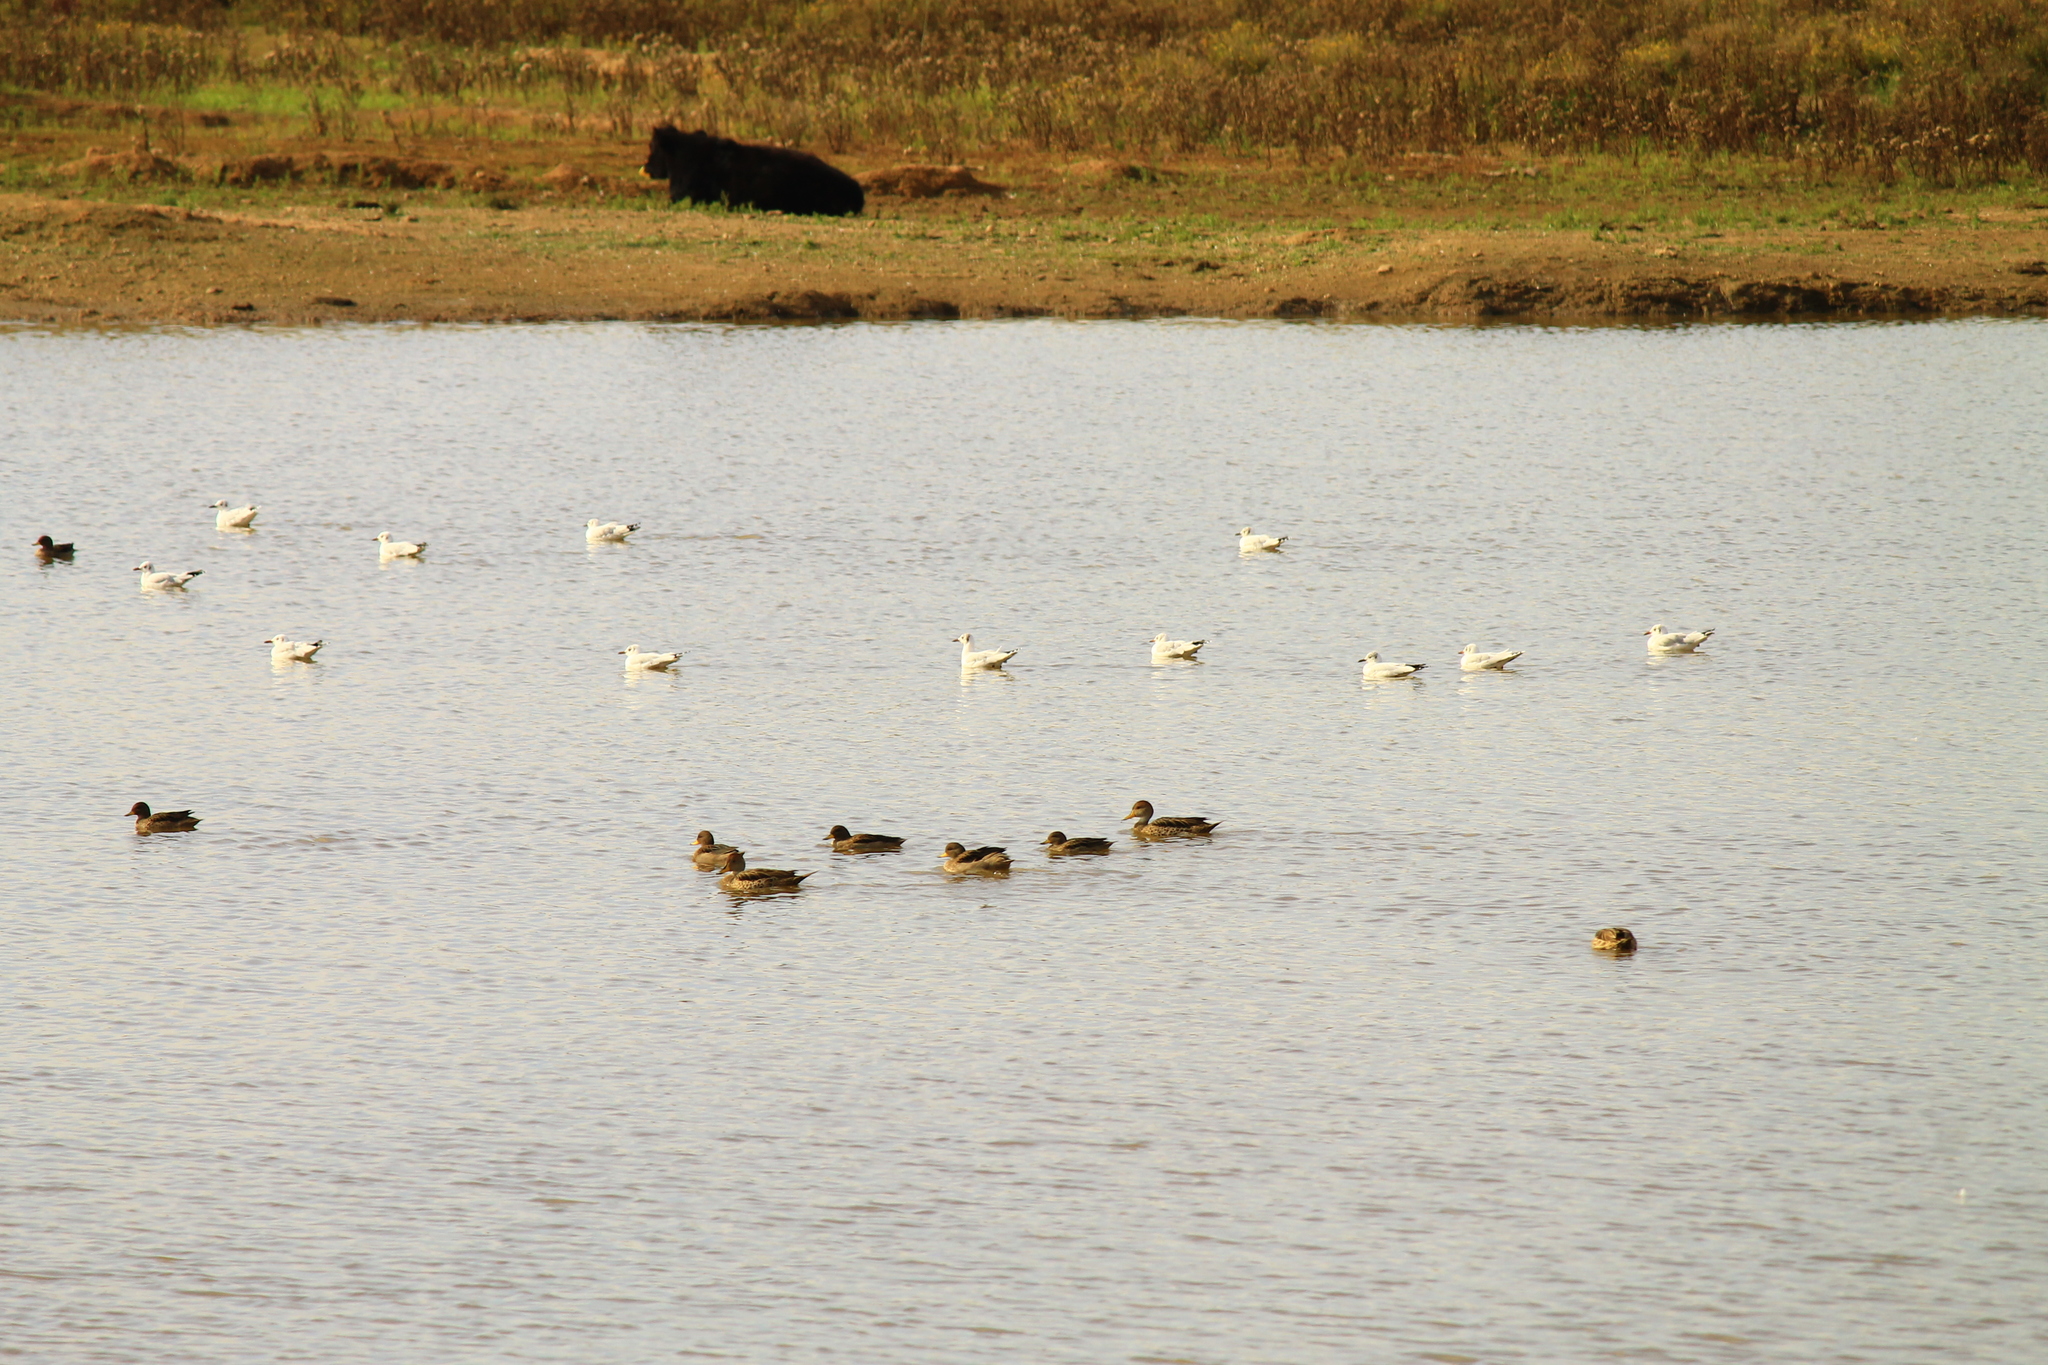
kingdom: Animalia
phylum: Chordata
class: Aves
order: Anseriformes
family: Anatidae
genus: Anas
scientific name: Anas flavirostris
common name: Yellow-billed teal
